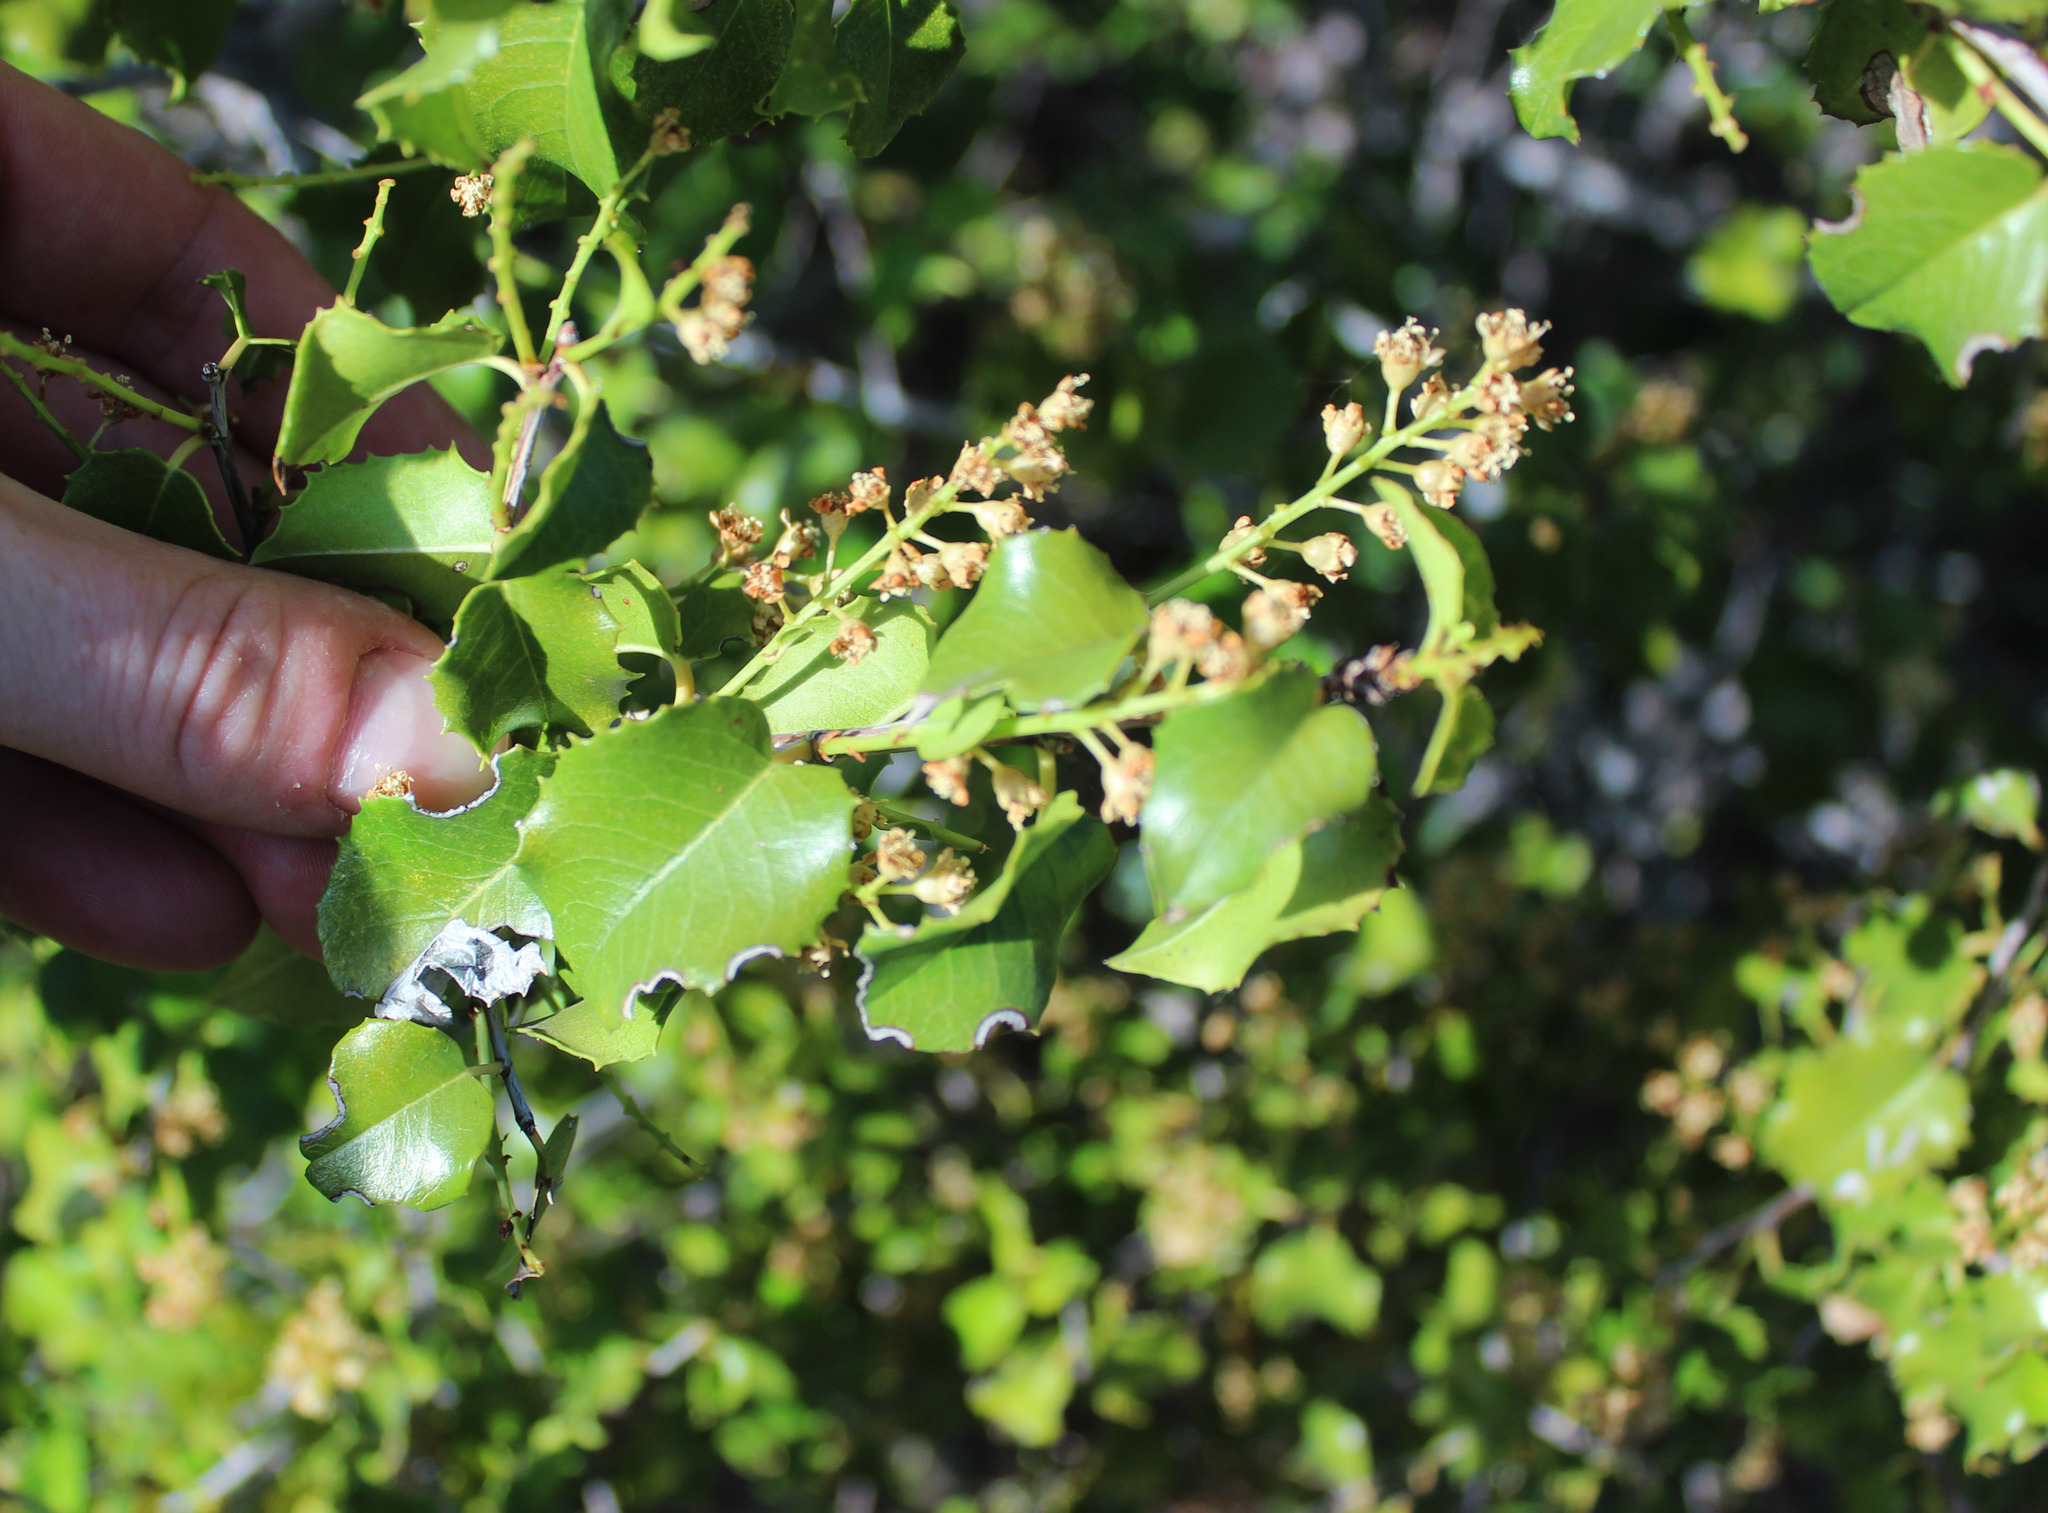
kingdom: Plantae
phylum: Tracheophyta
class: Magnoliopsida
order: Rosales
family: Rosaceae
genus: Prunus
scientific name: Prunus ilicifolia
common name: Hollyleaf cherry
